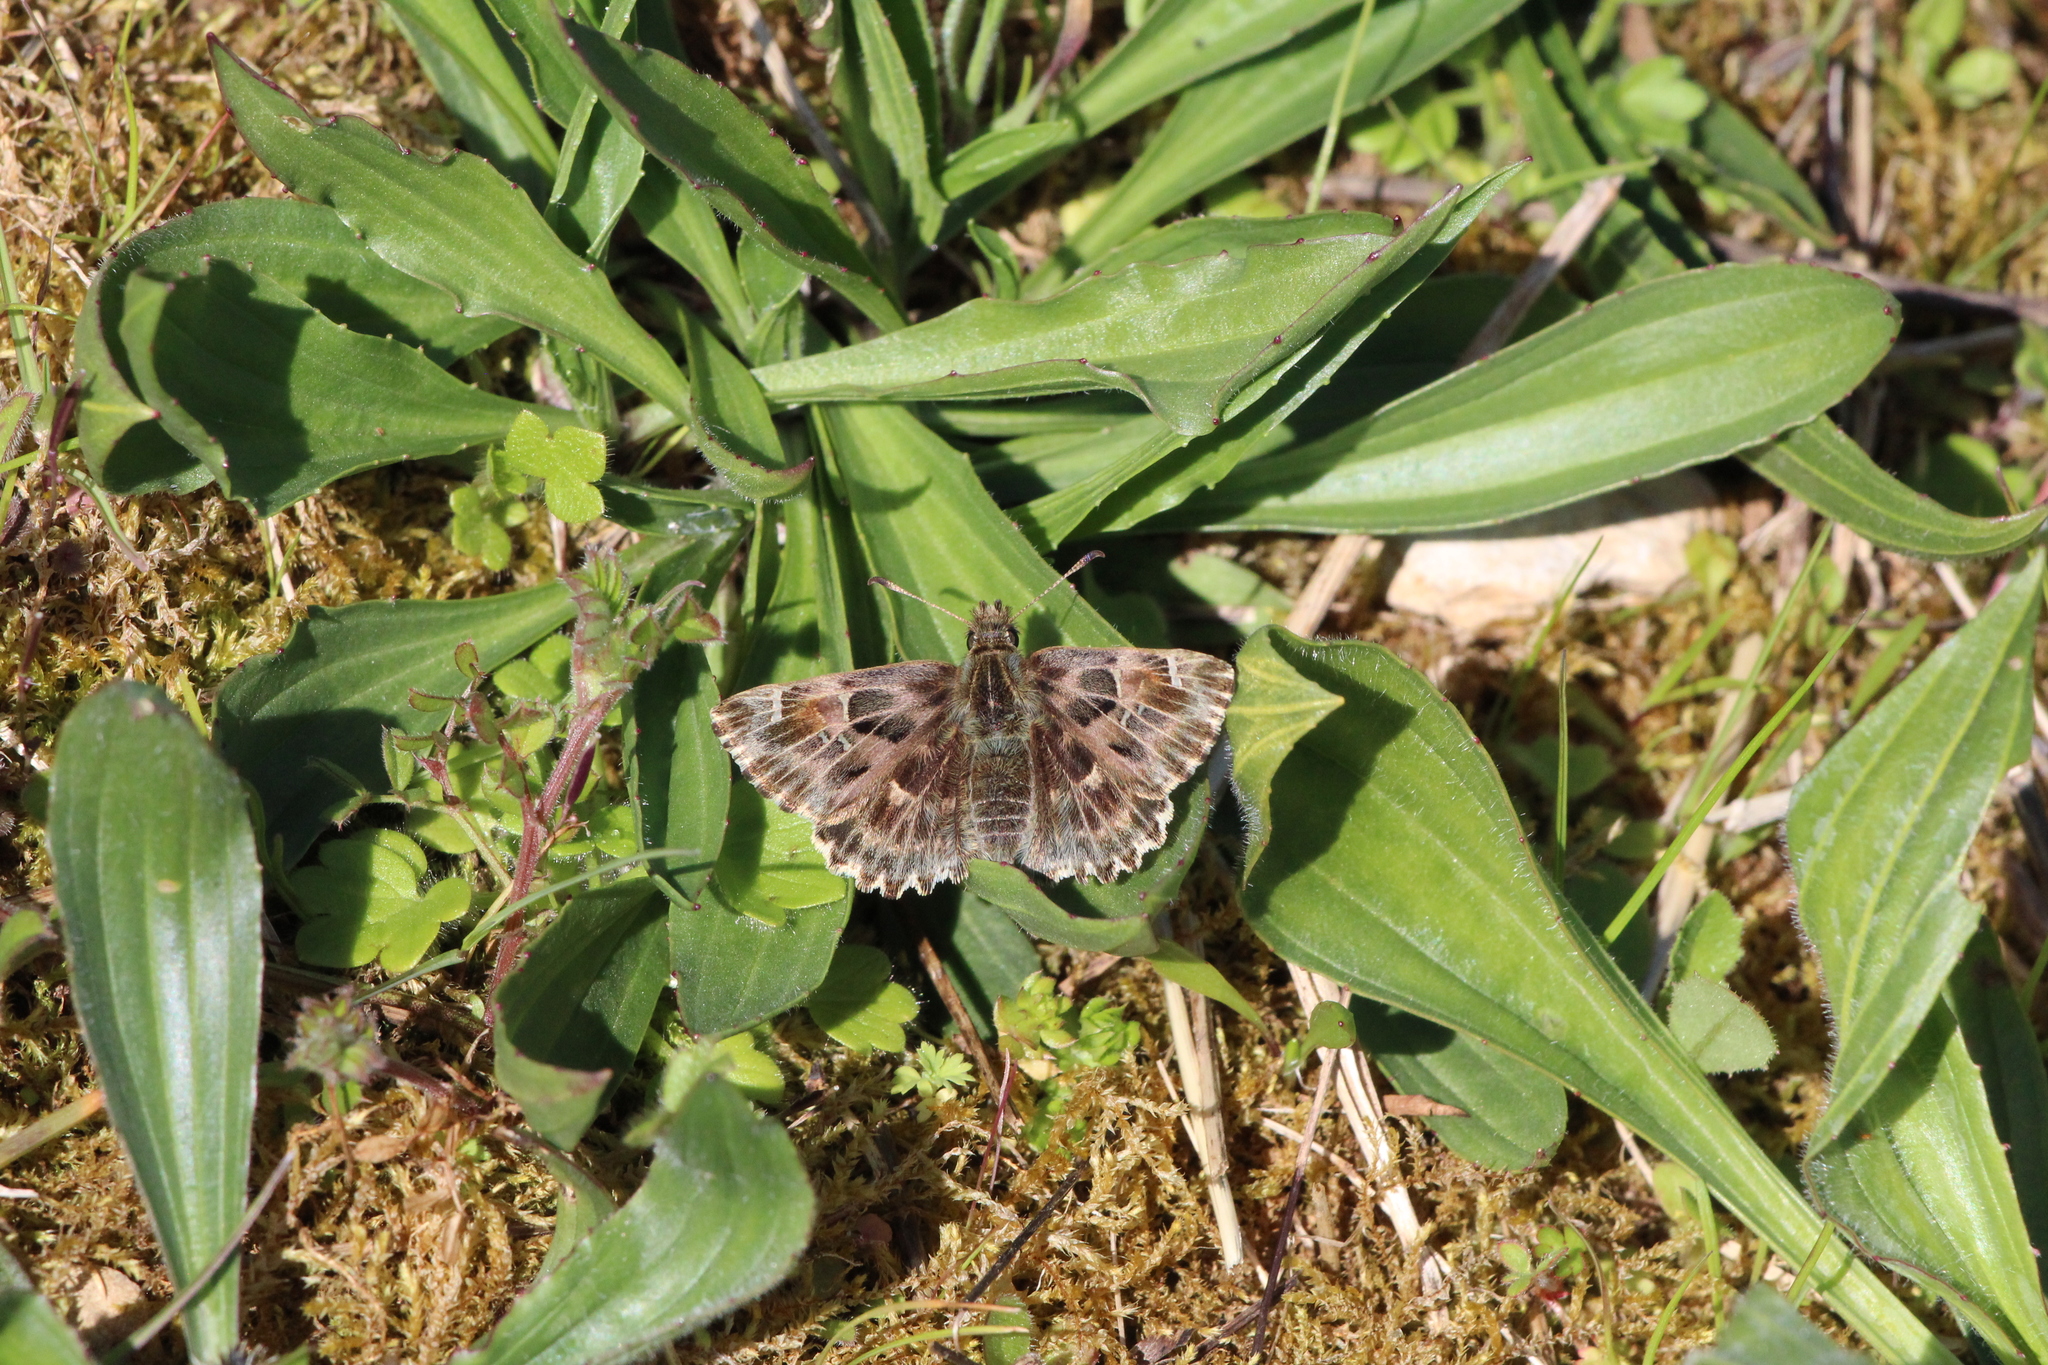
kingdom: Animalia
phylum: Arthropoda
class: Insecta
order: Lepidoptera
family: Hesperiidae
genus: Carcharodus
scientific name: Carcharodus alceae
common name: Mallow skipper
